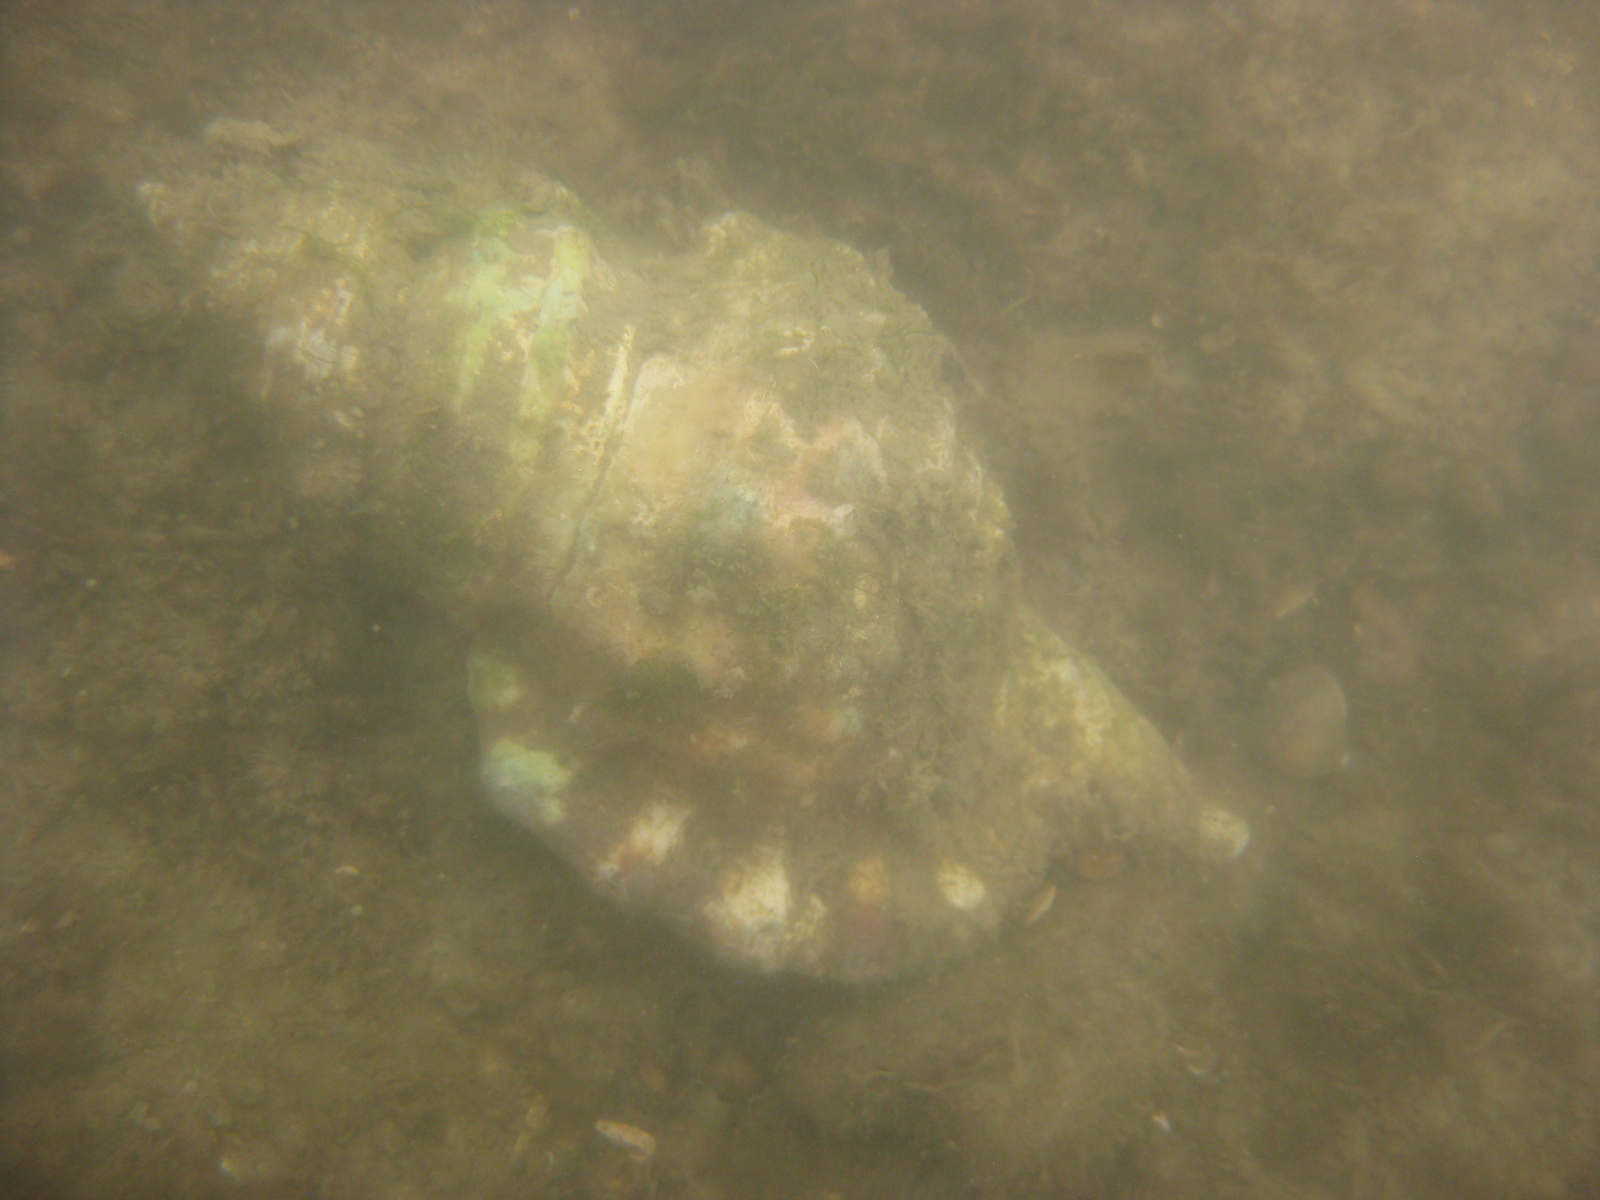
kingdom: Animalia
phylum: Mollusca
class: Gastropoda
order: Littorinimorpha
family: Cymatiidae
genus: Monoplex
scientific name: Monoplex parthenopeus
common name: Giant triton
